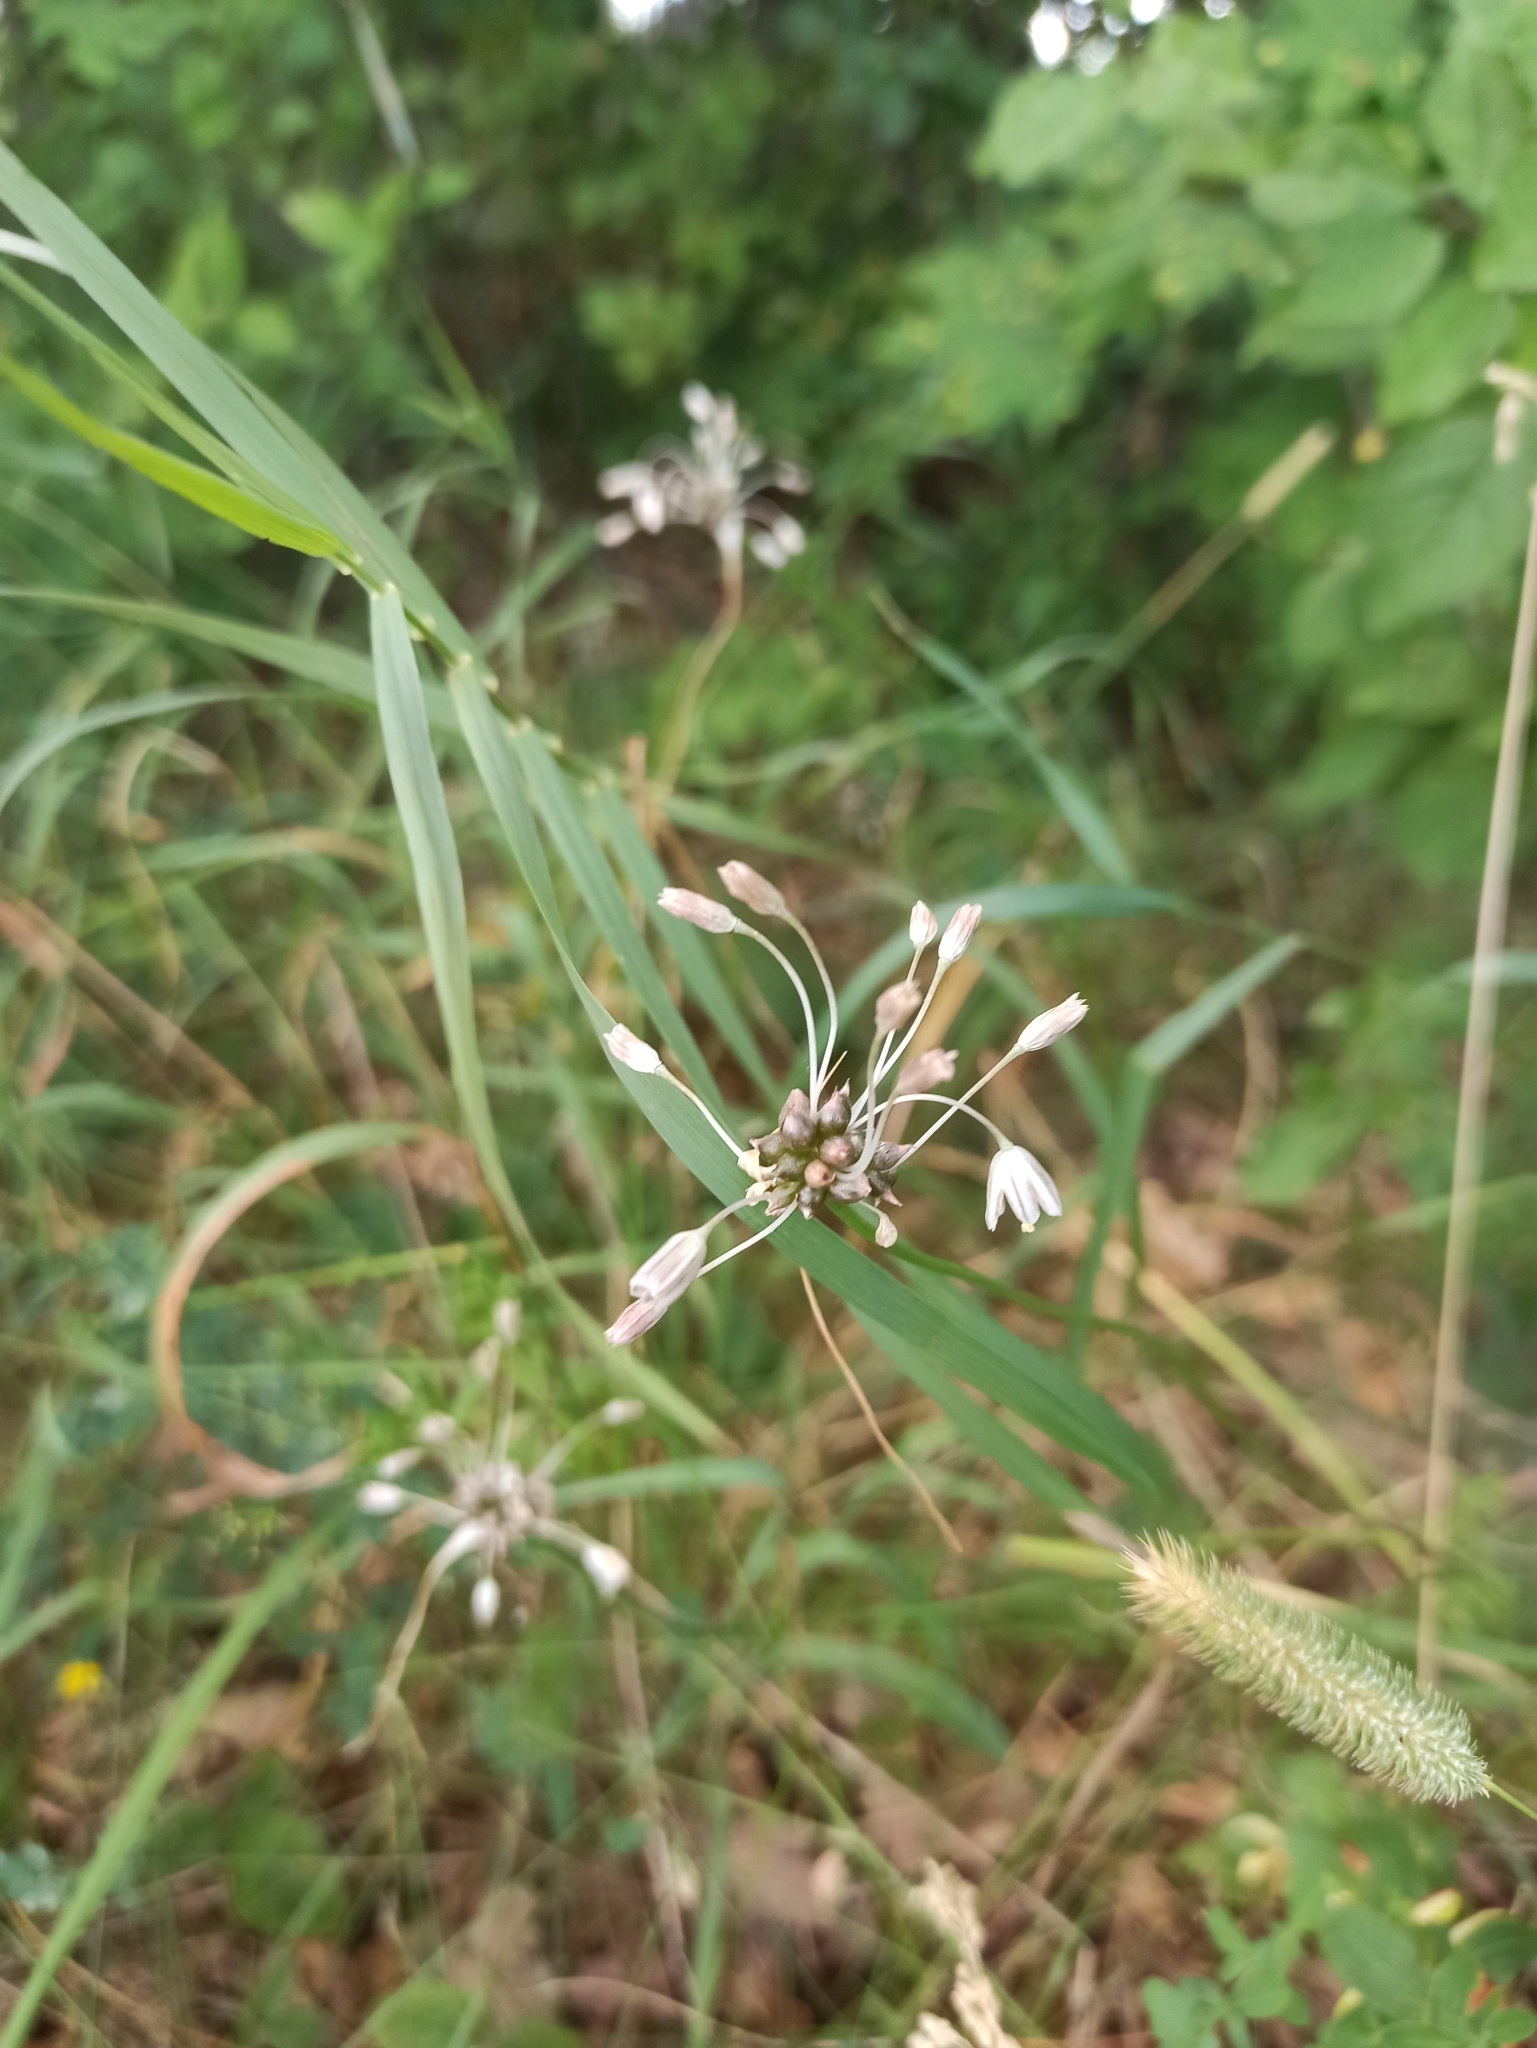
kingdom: Plantae
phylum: Tracheophyta
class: Liliopsida
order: Asparagales
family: Amaryllidaceae
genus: Allium
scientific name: Allium oleraceum
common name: Field garlic
